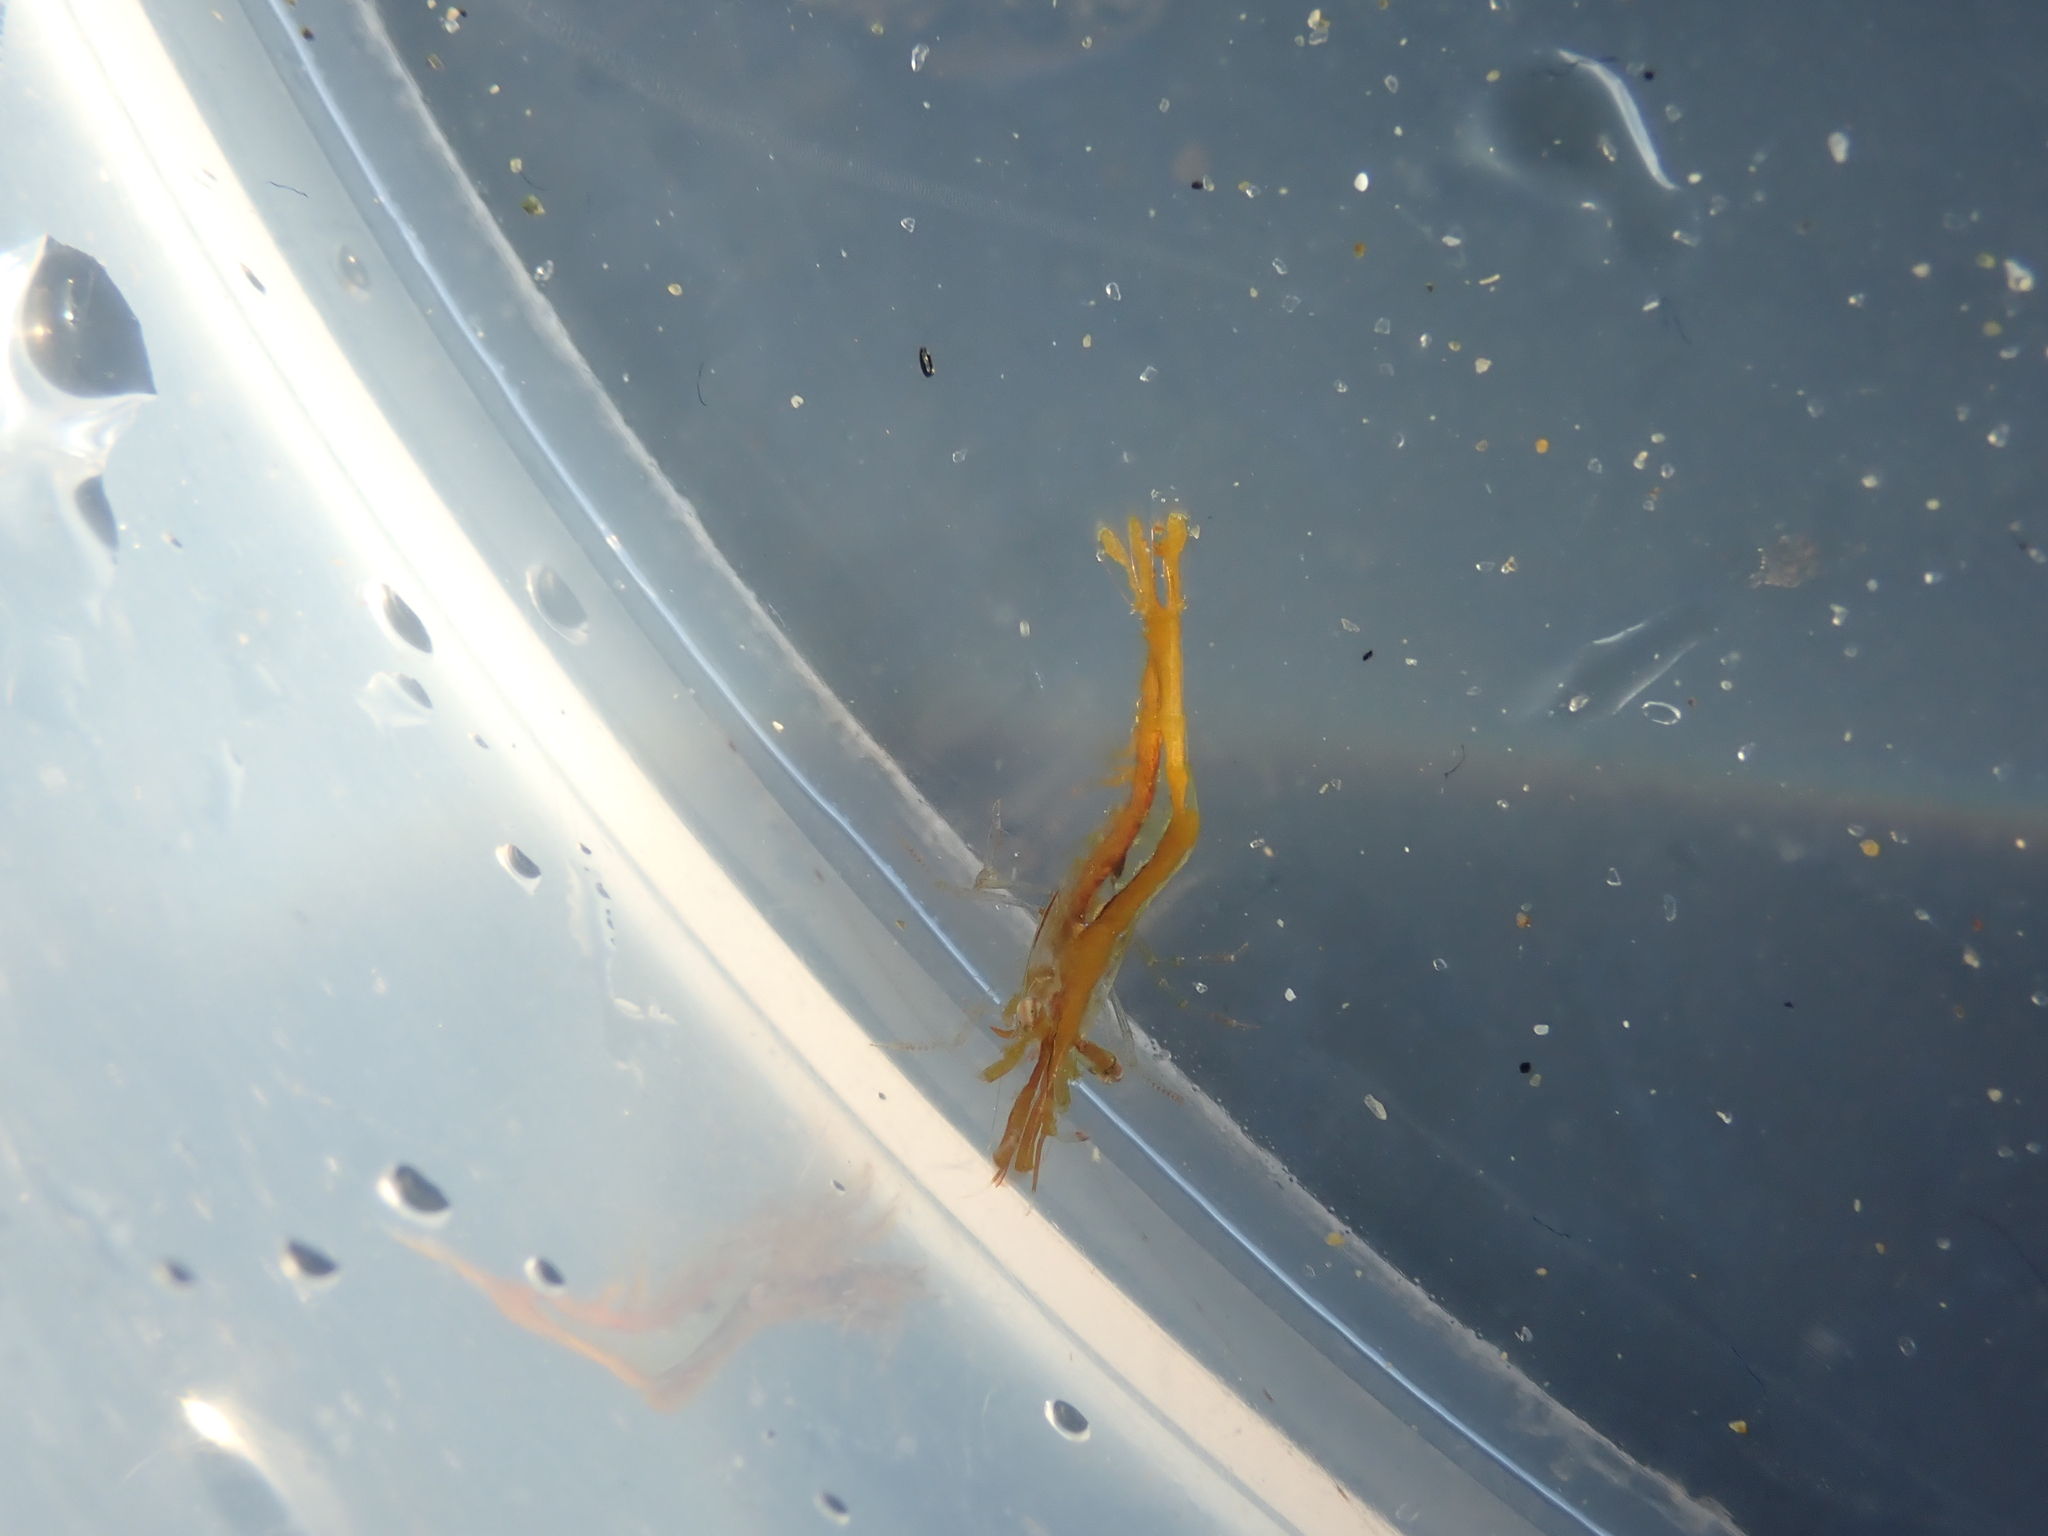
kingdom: Animalia
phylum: Arthropoda
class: Malacostraca
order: Decapoda
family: Hippolytidae
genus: Hippolyte
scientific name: Hippolyte bifidirostris
